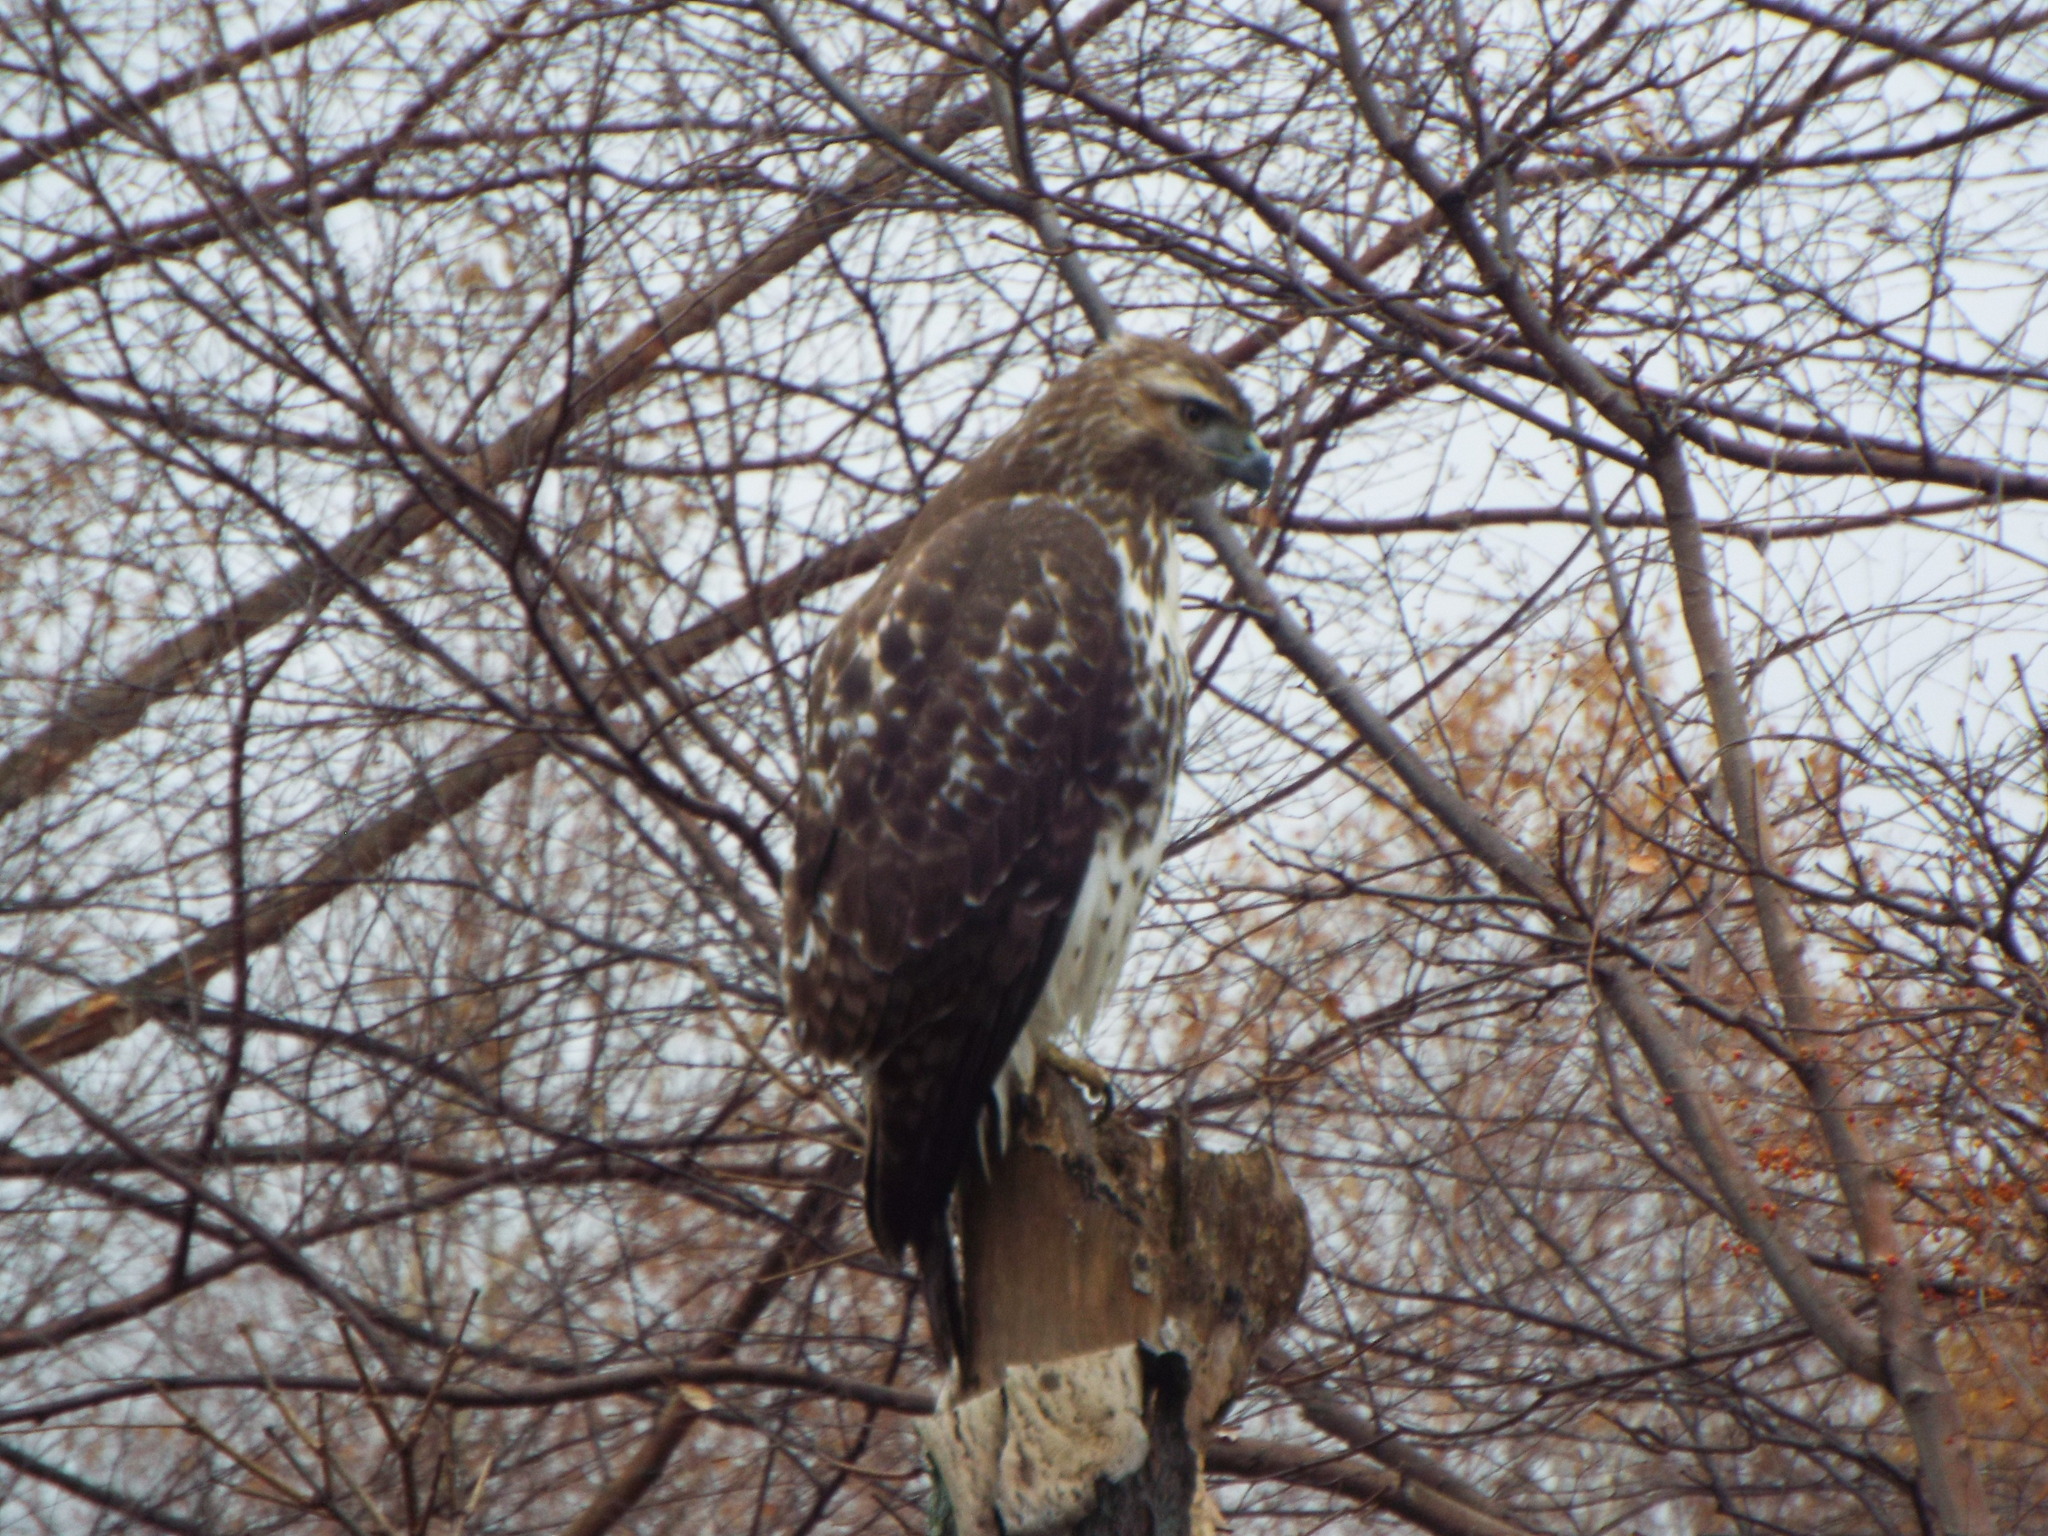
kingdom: Animalia
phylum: Chordata
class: Aves
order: Accipitriformes
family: Accipitridae
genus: Buteo
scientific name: Buteo jamaicensis
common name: Red-tailed hawk
